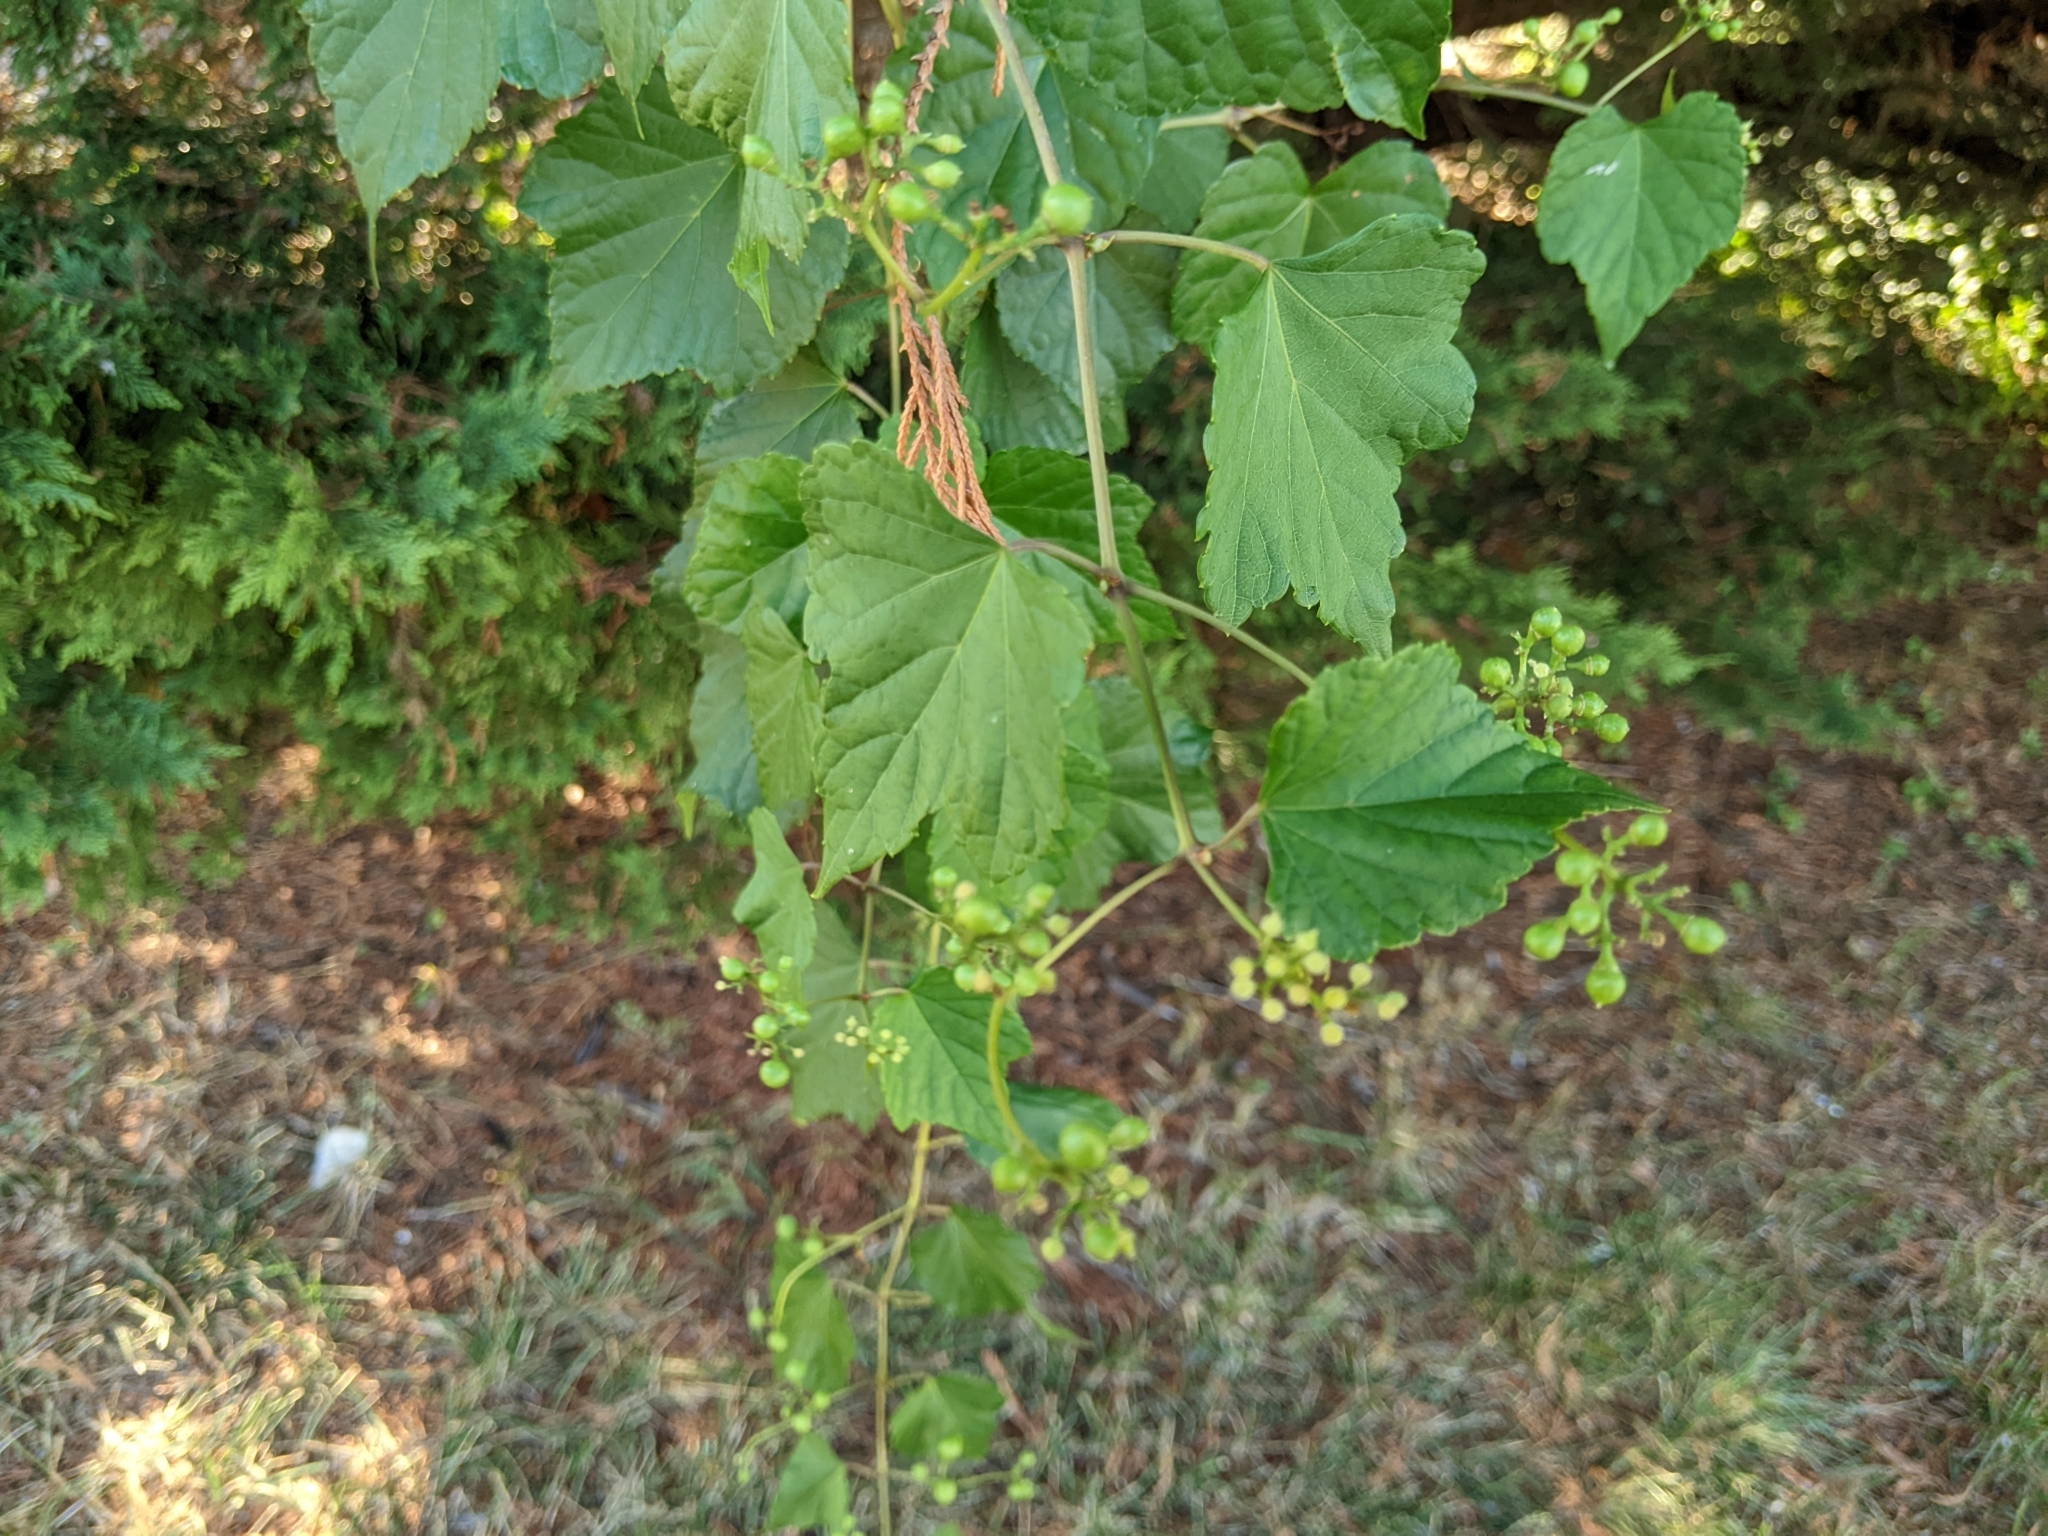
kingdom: Plantae
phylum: Tracheophyta
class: Magnoliopsida
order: Vitales
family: Vitaceae
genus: Ampelopsis
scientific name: Ampelopsis glandulosa
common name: Amur peppervine
